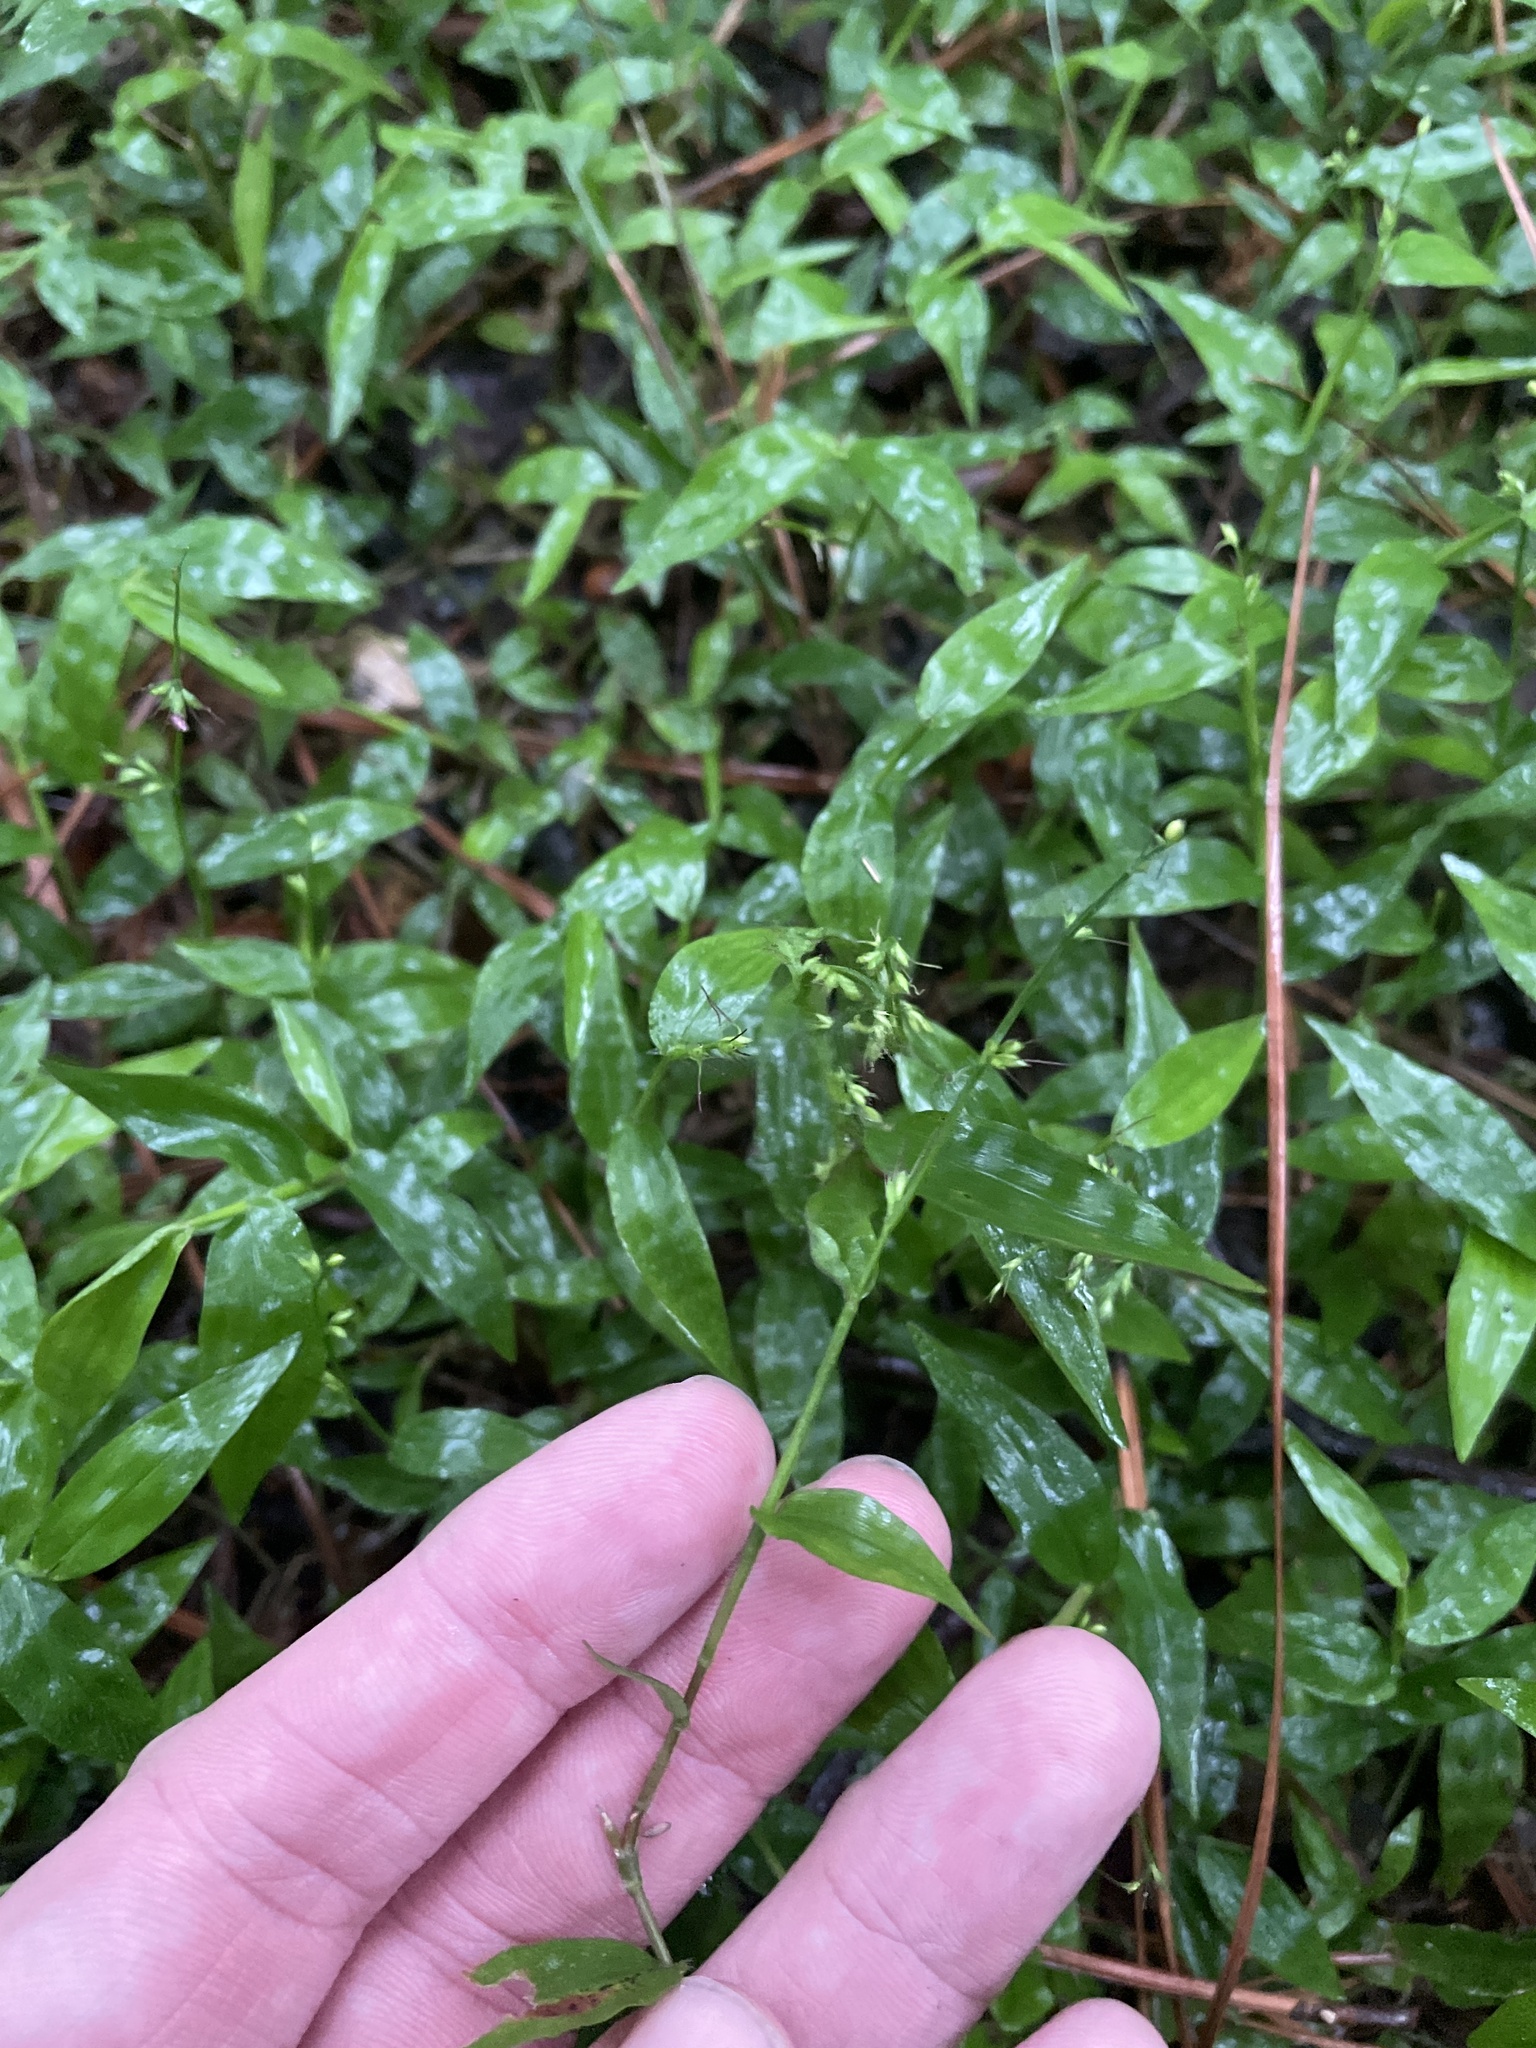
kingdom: Plantae
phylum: Tracheophyta
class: Liliopsida
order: Poales
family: Poaceae
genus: Oplismenus
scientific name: Oplismenus hirtellus
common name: Basketgrass
